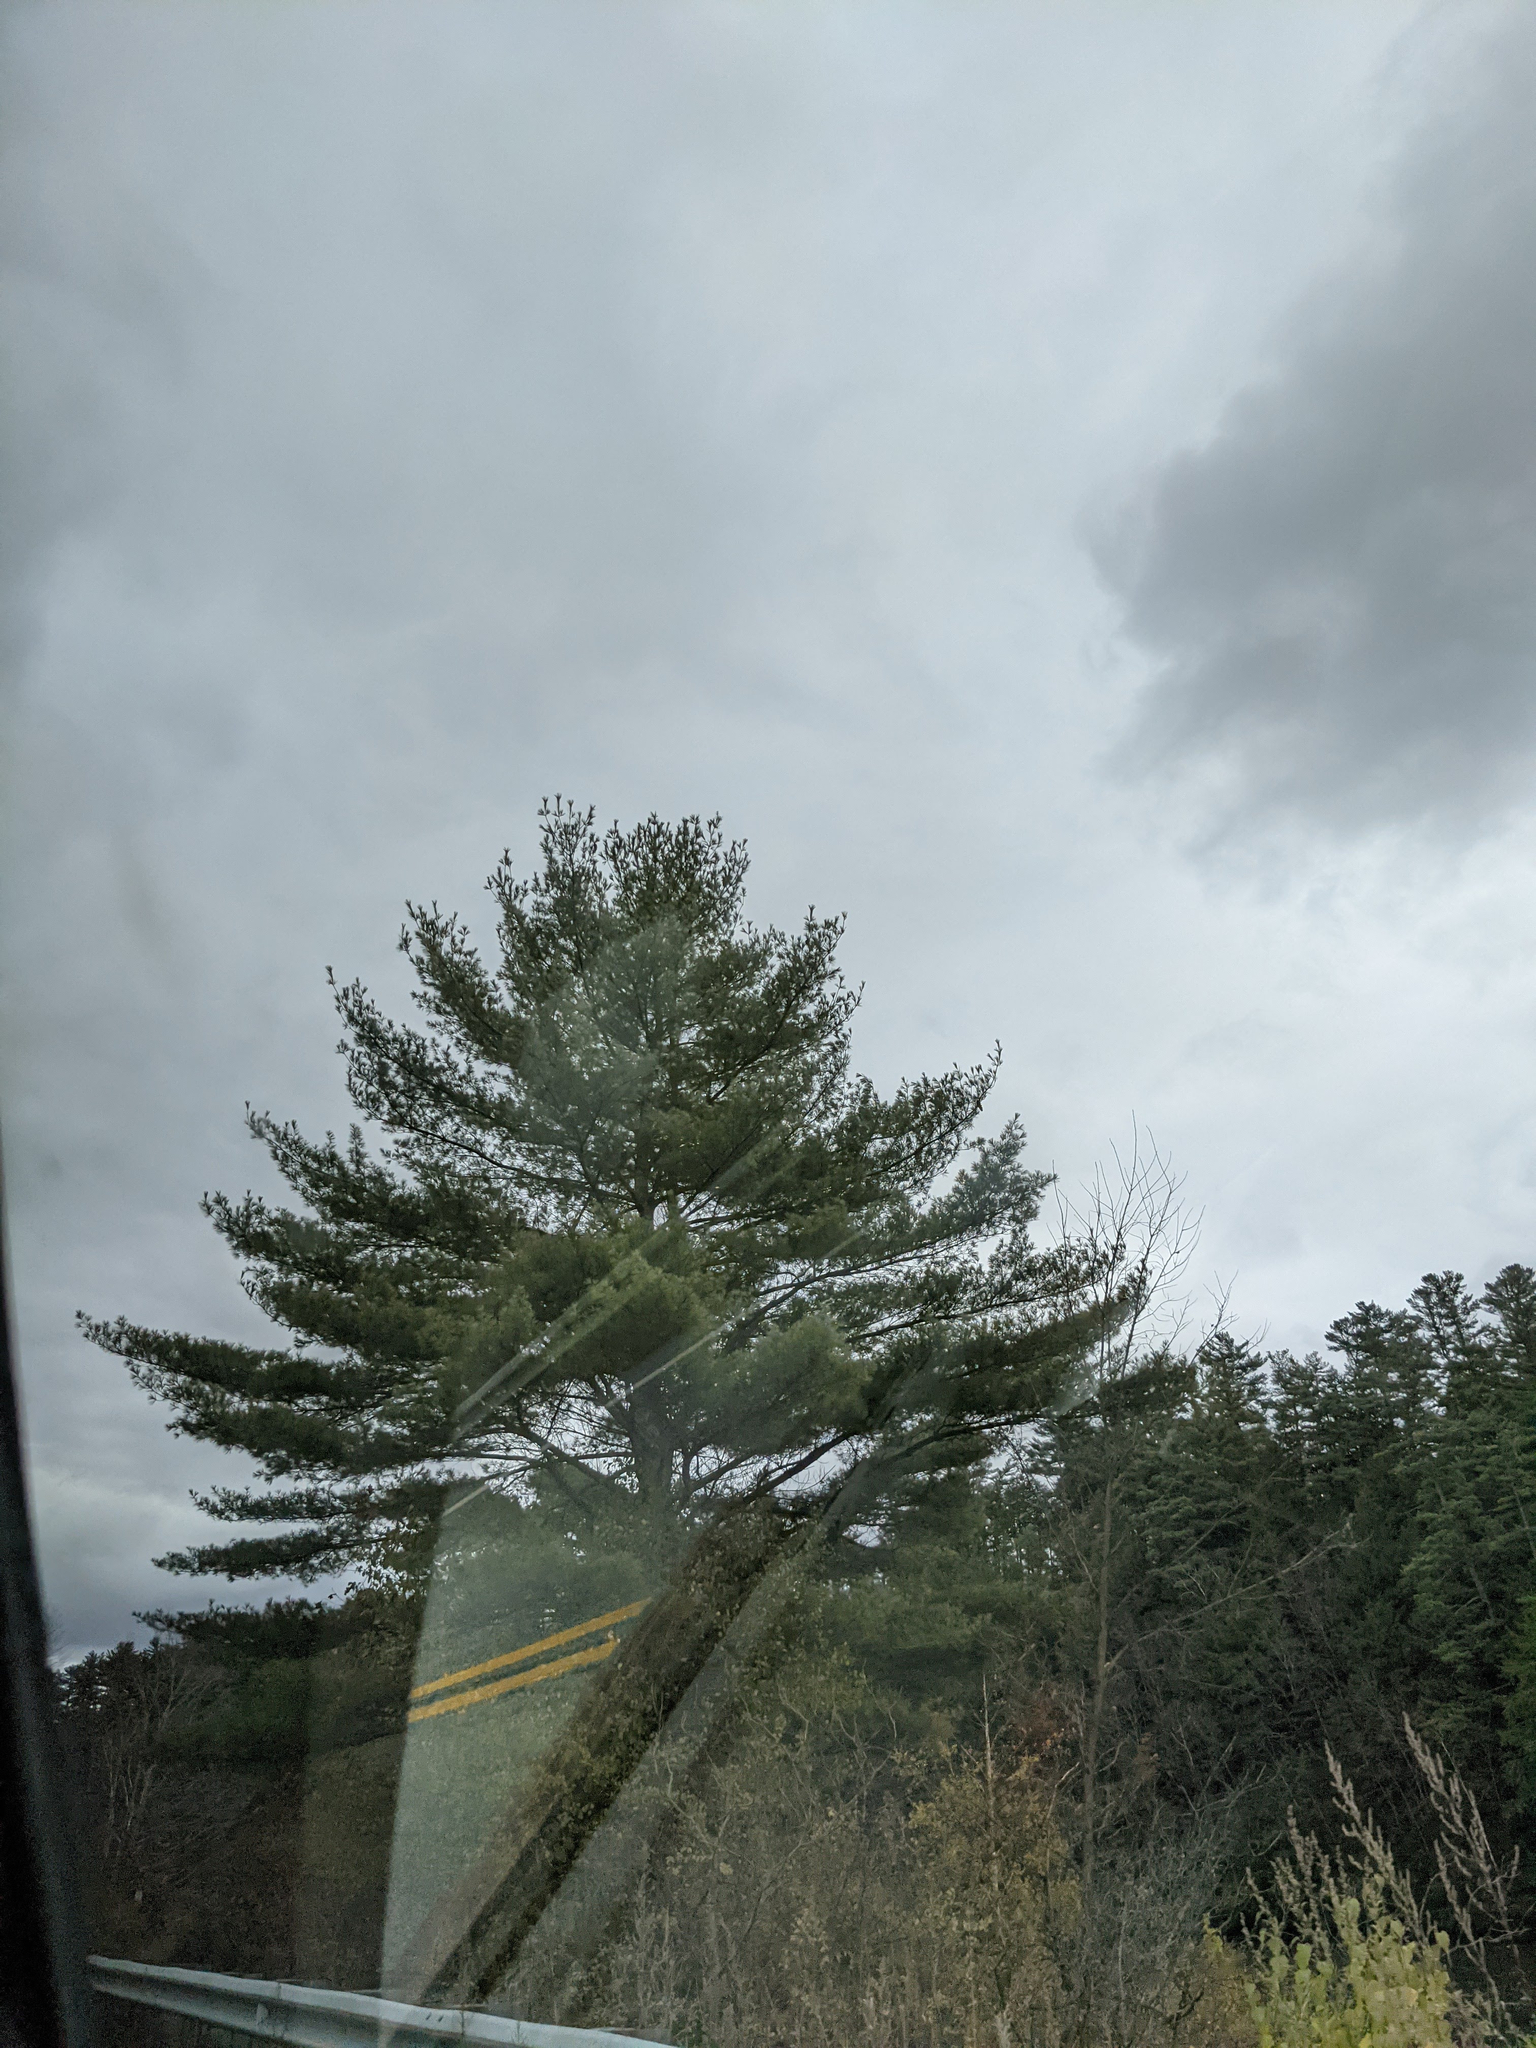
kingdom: Plantae
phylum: Tracheophyta
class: Pinopsida
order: Pinales
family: Pinaceae
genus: Pinus
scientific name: Pinus strobus
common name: Weymouth pine
